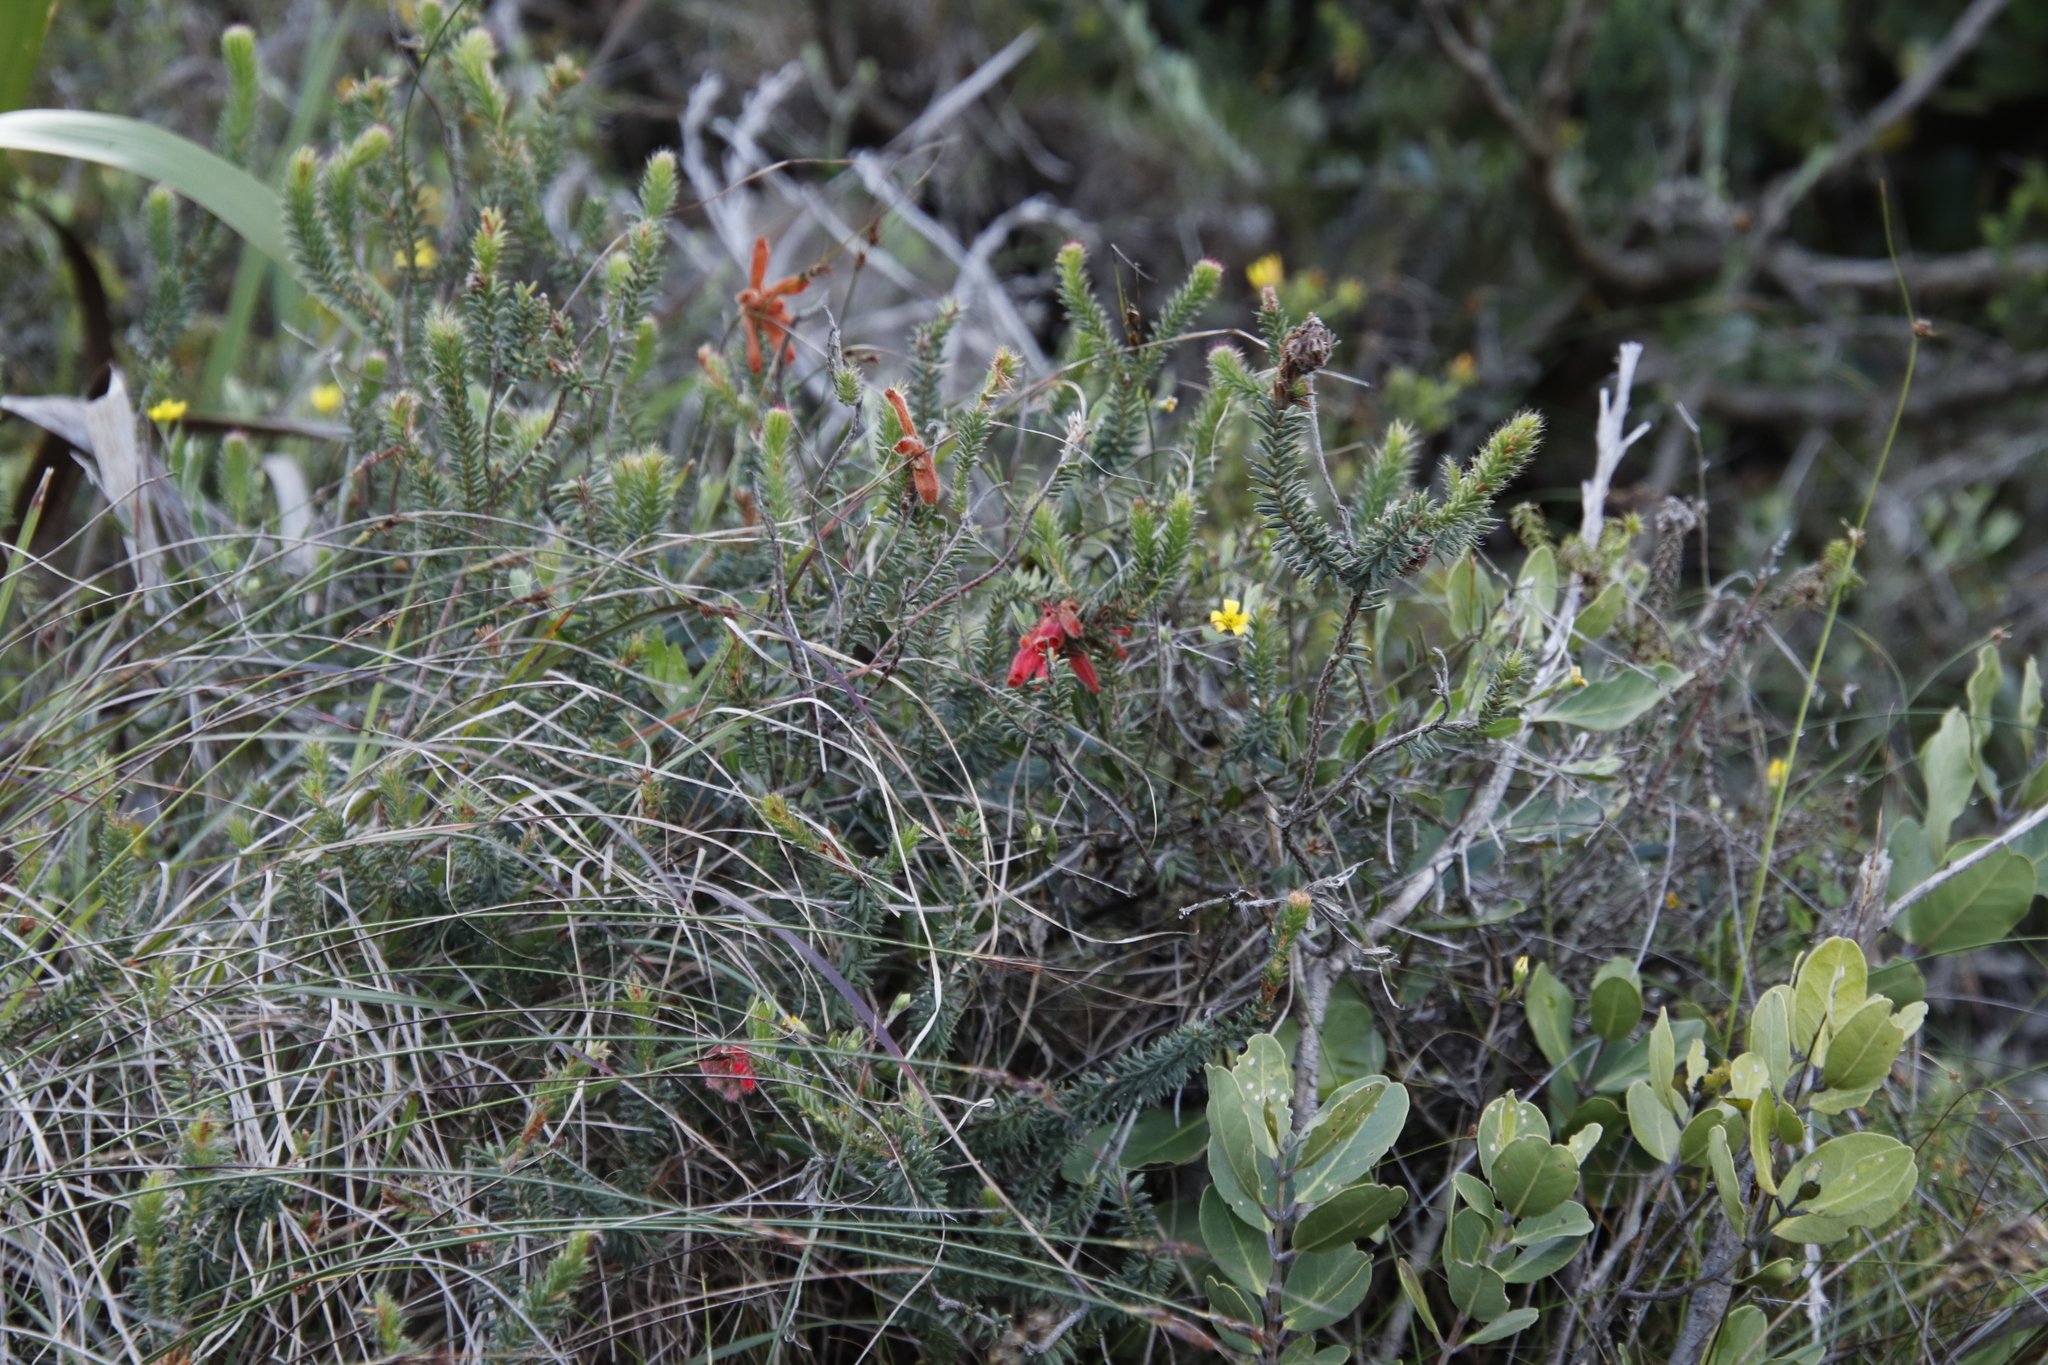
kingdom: Plantae
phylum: Tracheophyta
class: Magnoliopsida
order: Ericales
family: Ericaceae
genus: Erica
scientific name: Erica cerinthoides
